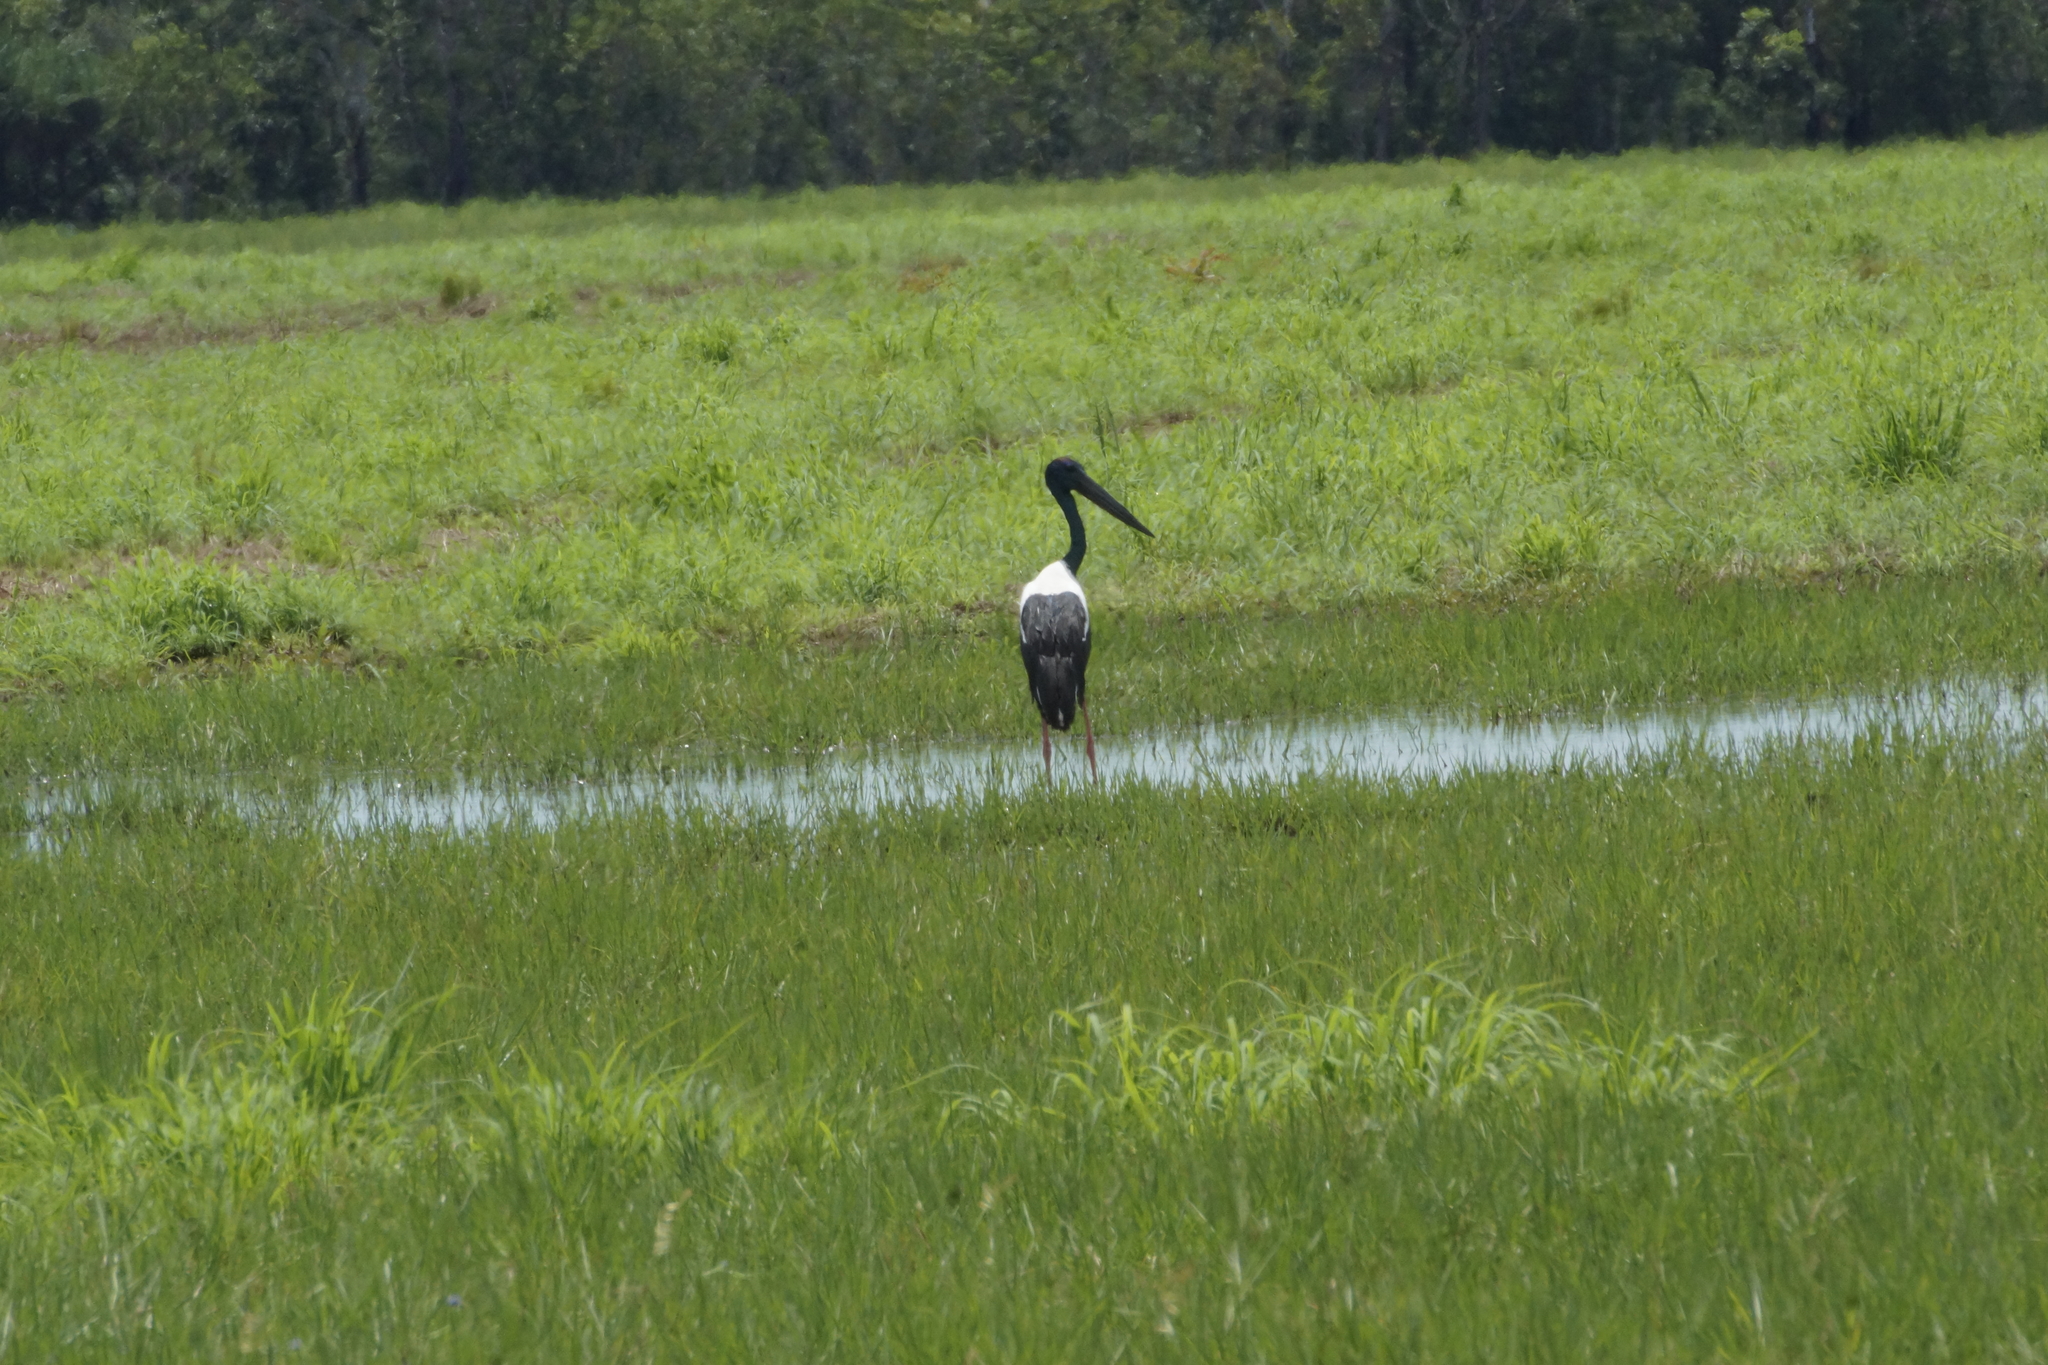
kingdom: Animalia
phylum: Chordata
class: Aves
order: Ciconiiformes
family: Ciconiidae
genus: Ephippiorhynchus
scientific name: Ephippiorhynchus asiaticus
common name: Black-necked stork
